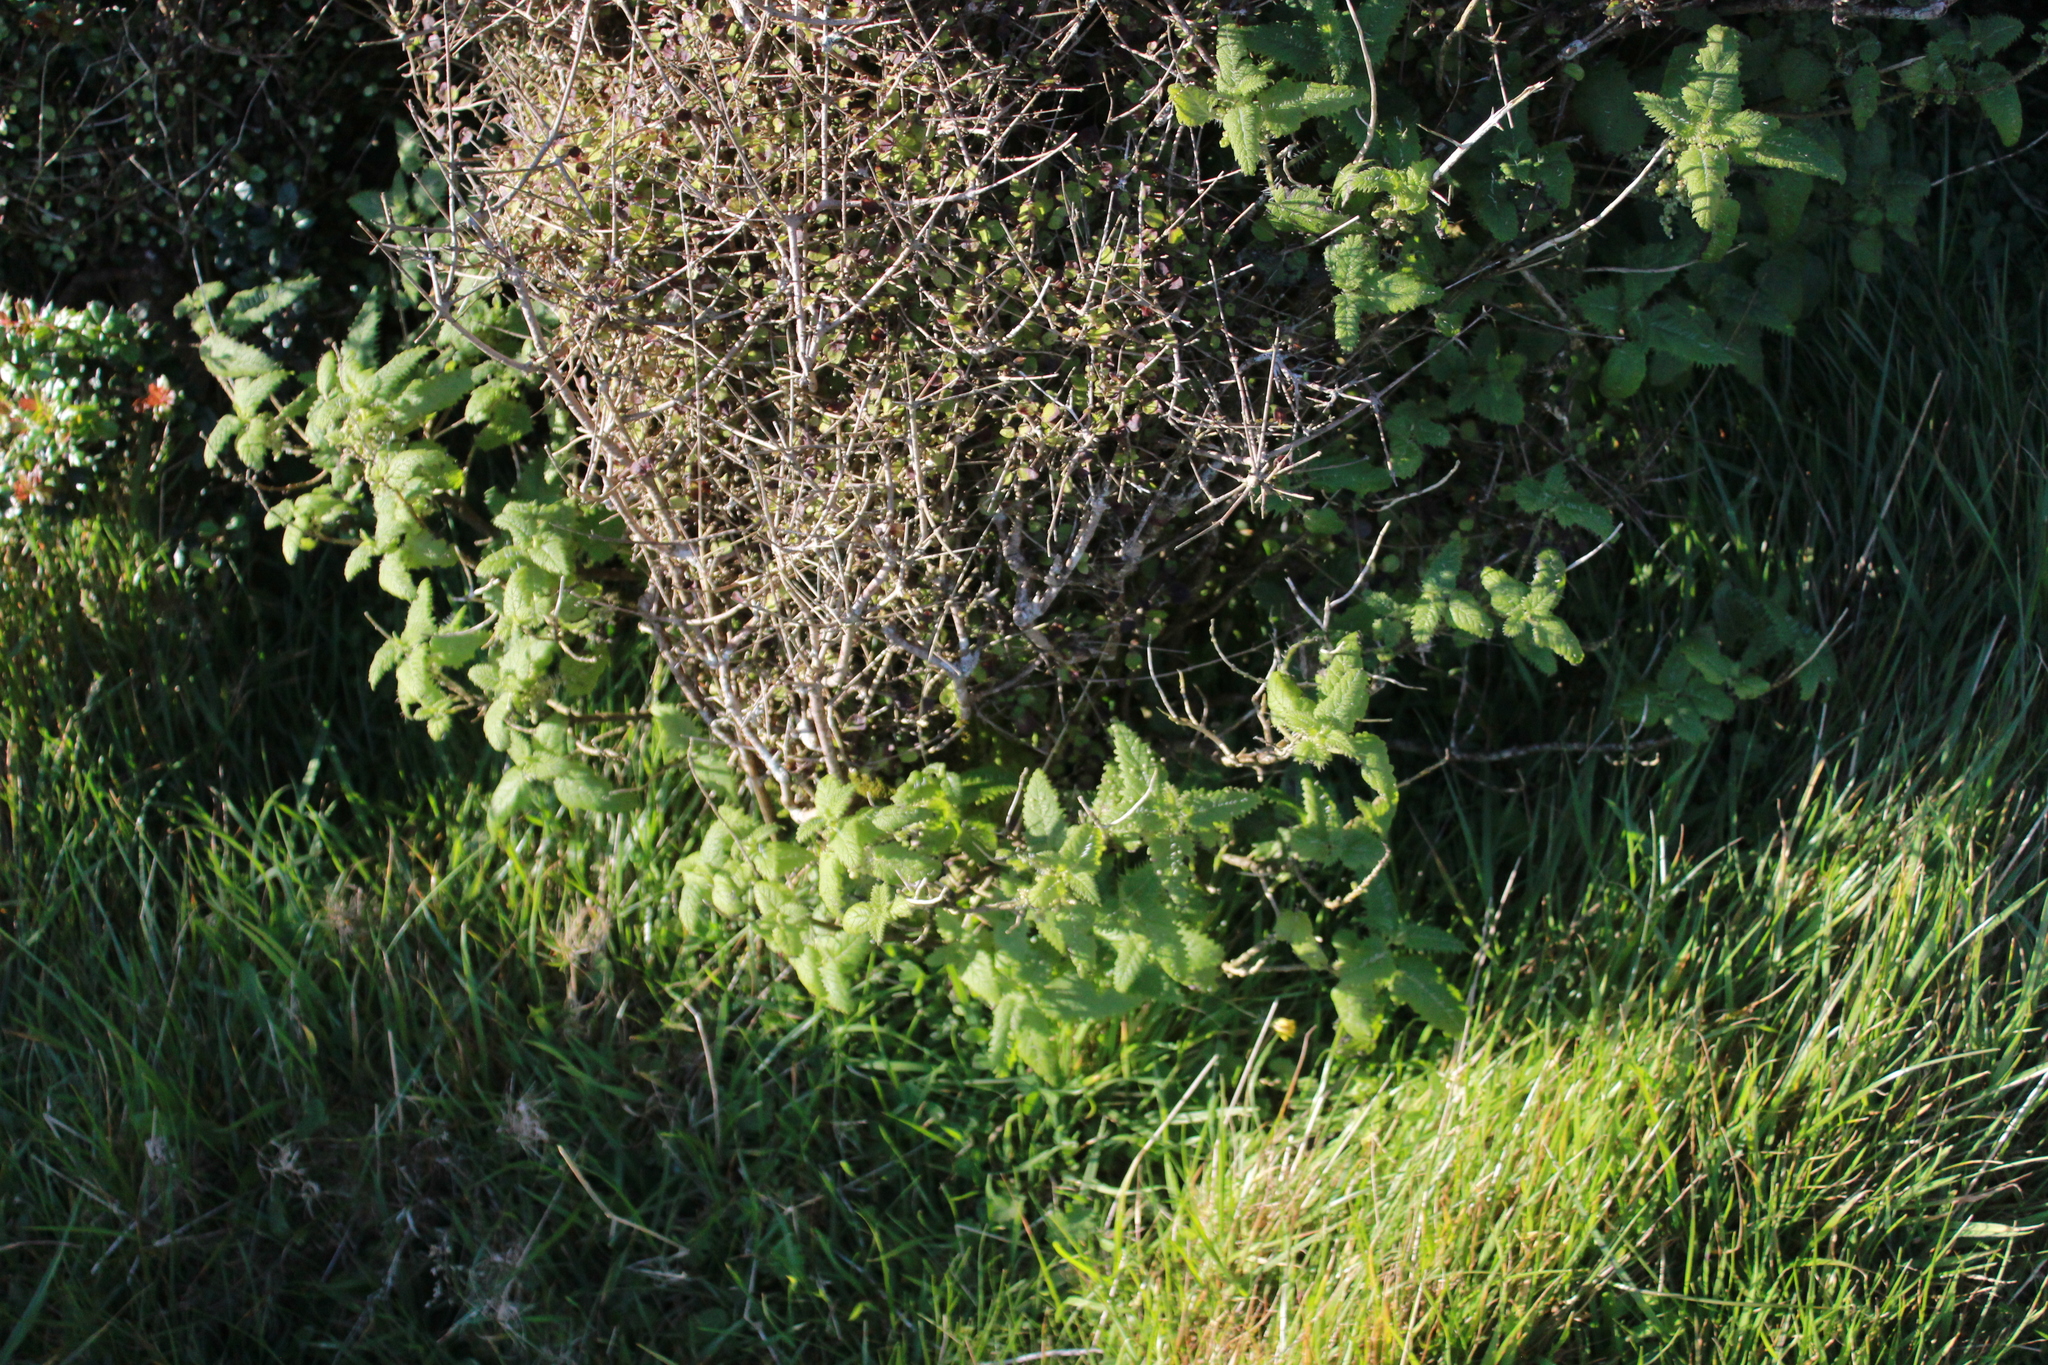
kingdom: Plantae
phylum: Tracheophyta
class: Magnoliopsida
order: Rosales
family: Urticaceae
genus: Urtica
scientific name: Urtica ferox
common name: Tree nettle
